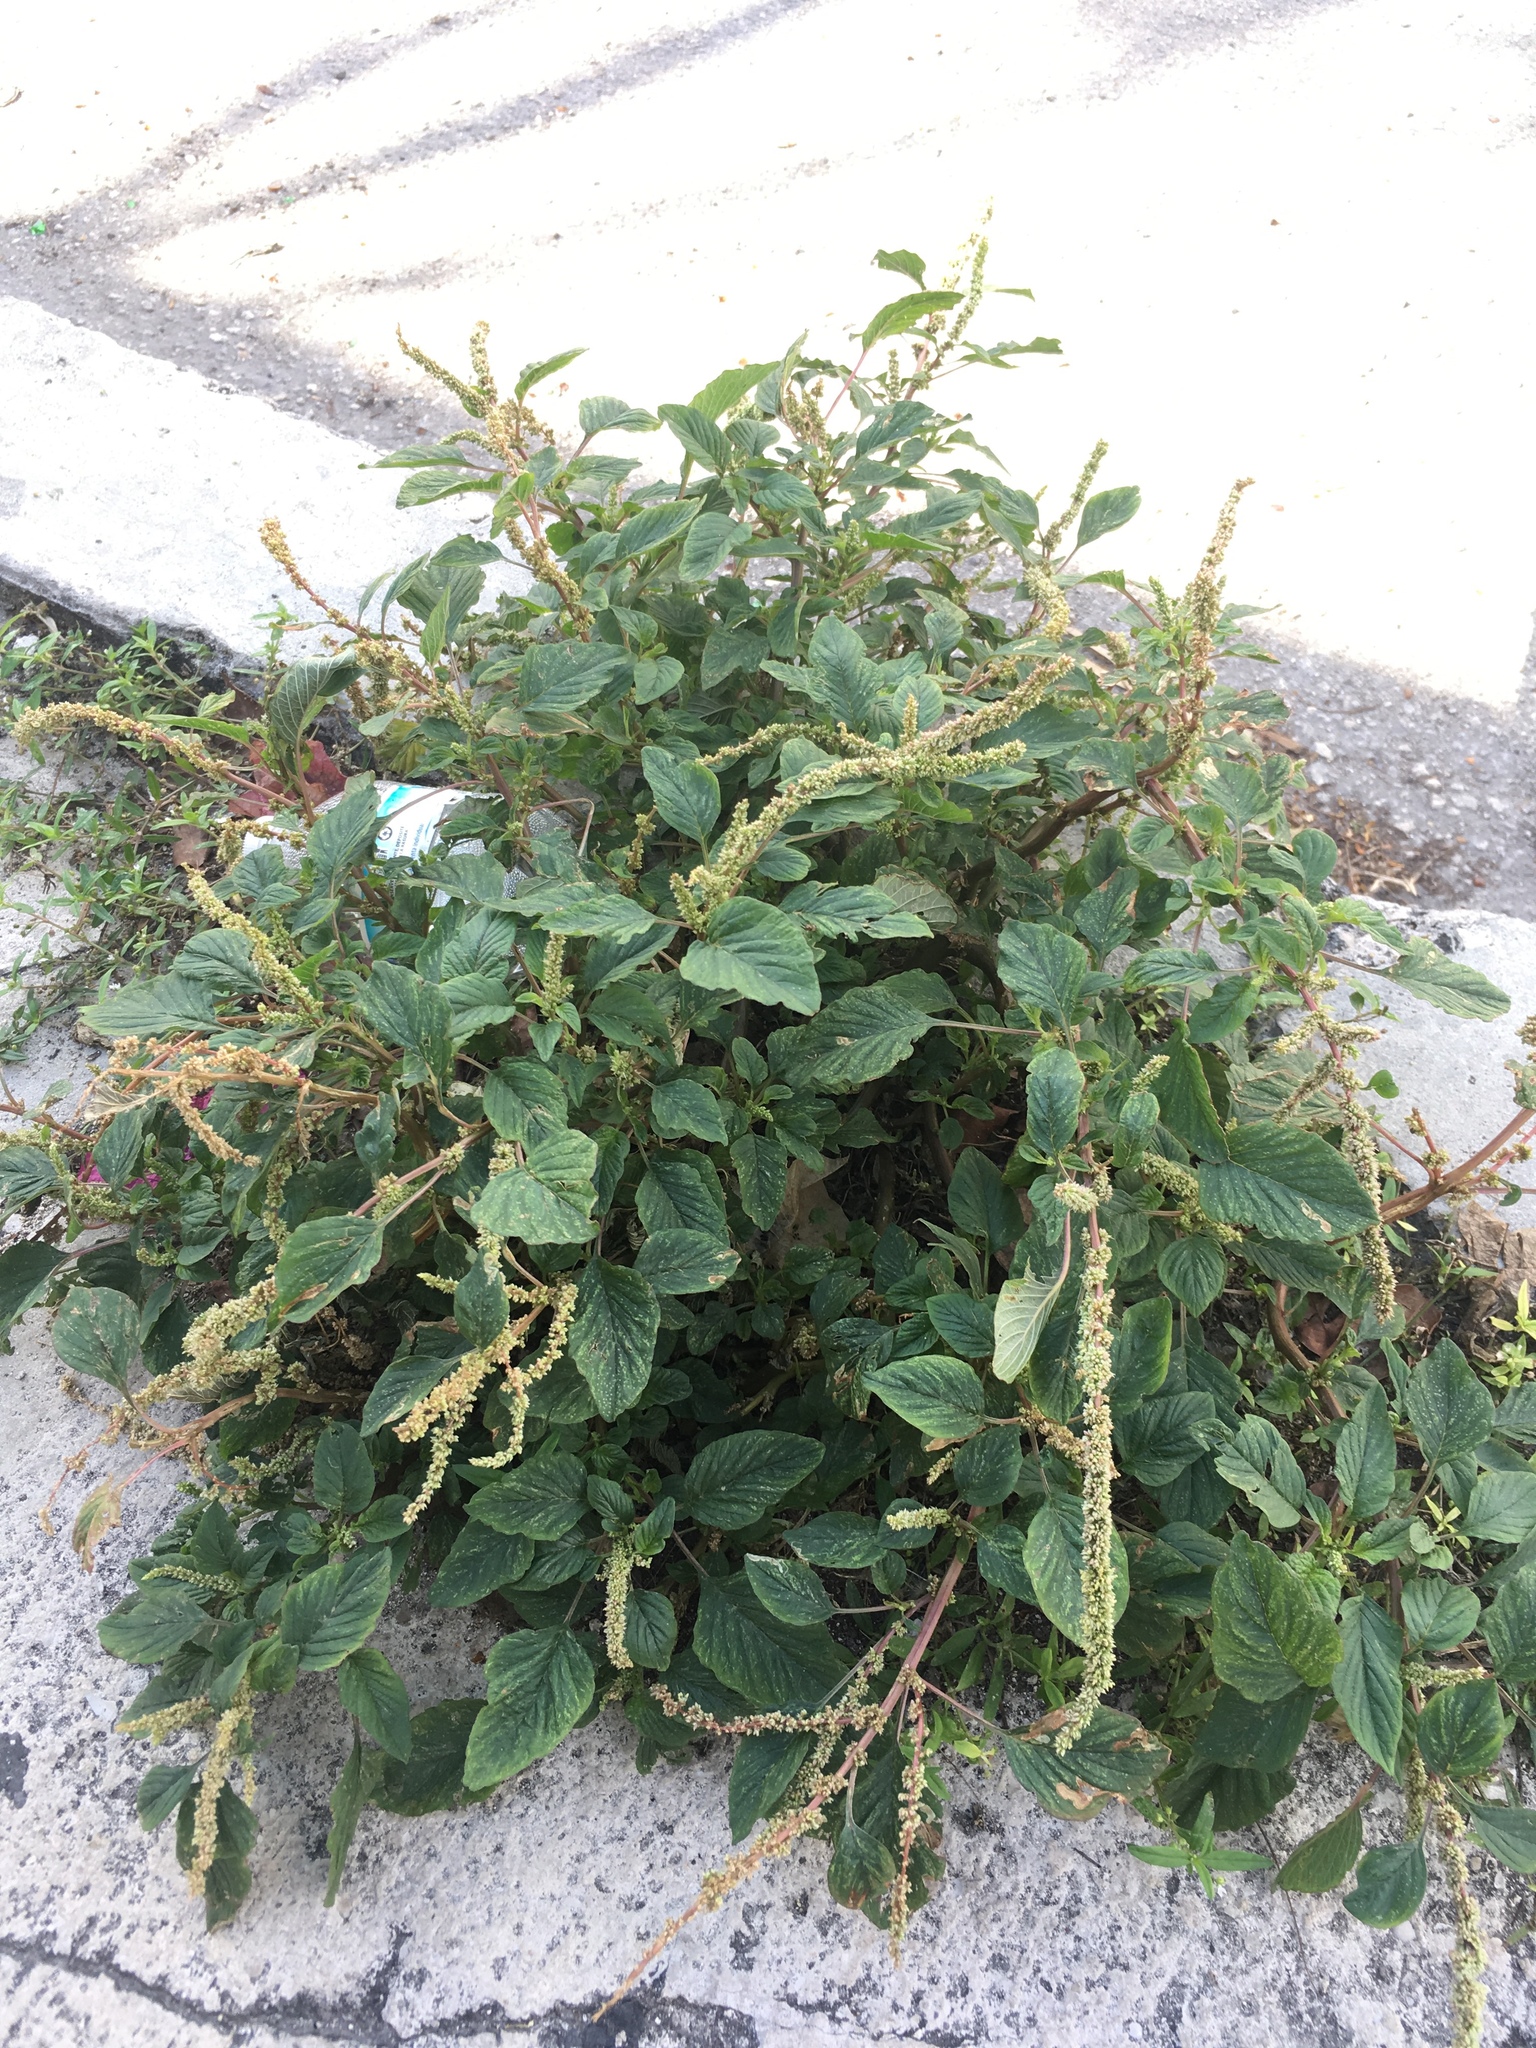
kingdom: Plantae
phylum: Tracheophyta
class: Magnoliopsida
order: Caryophyllales
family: Amaranthaceae
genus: Amaranthus
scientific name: Amaranthus hybridus
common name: Green amaranth
